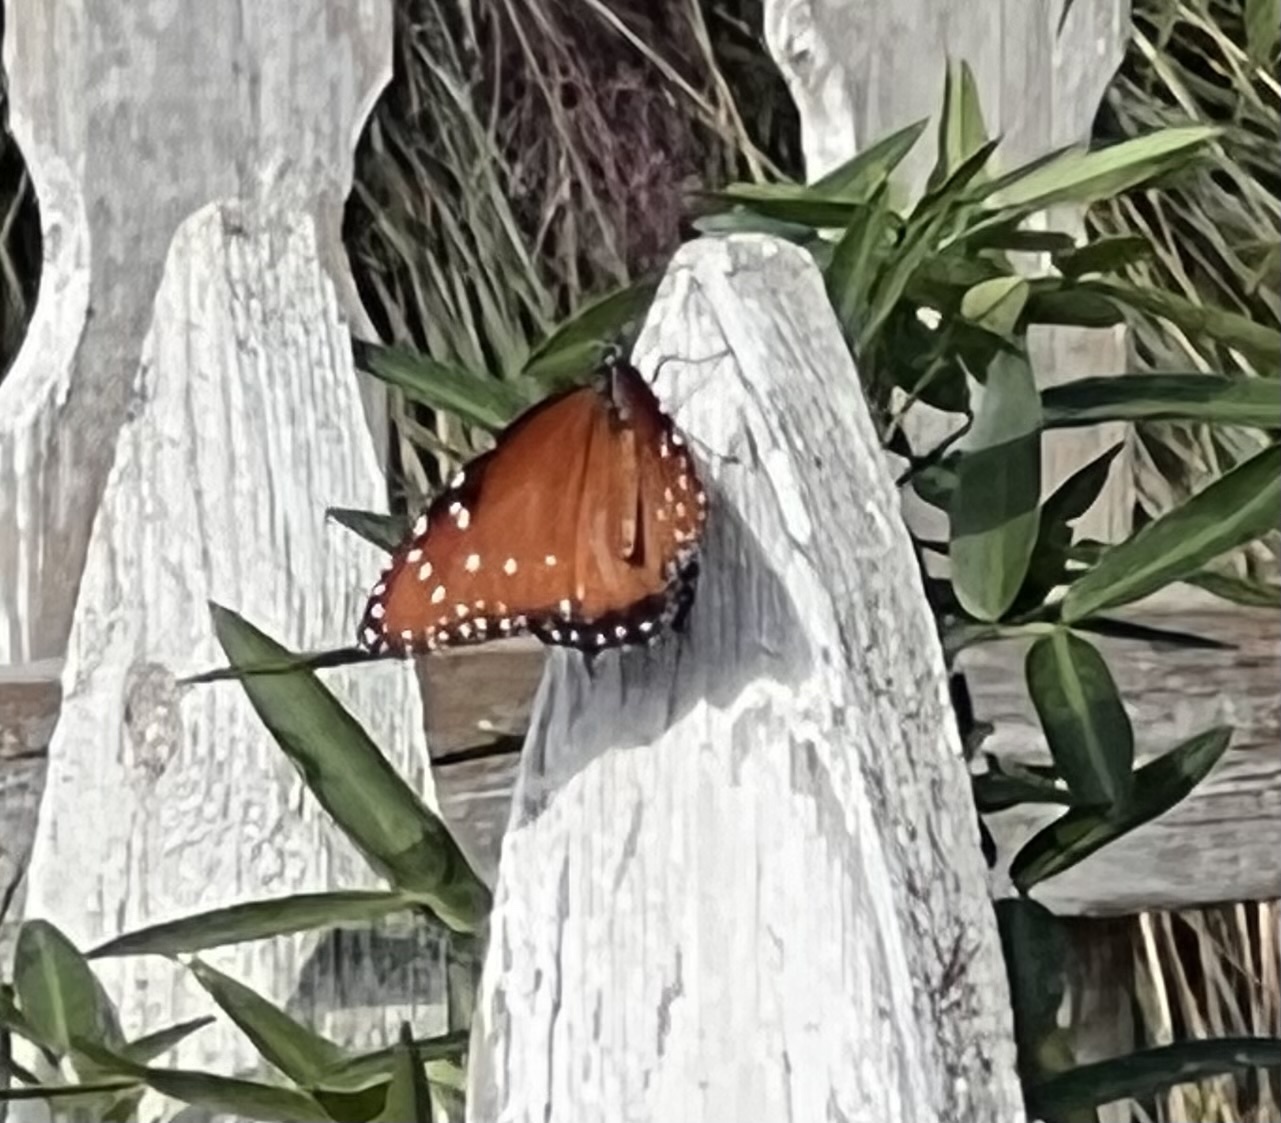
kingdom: Animalia
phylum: Arthropoda
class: Insecta
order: Lepidoptera
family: Nymphalidae
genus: Danaus
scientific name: Danaus gilippus
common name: Queen
